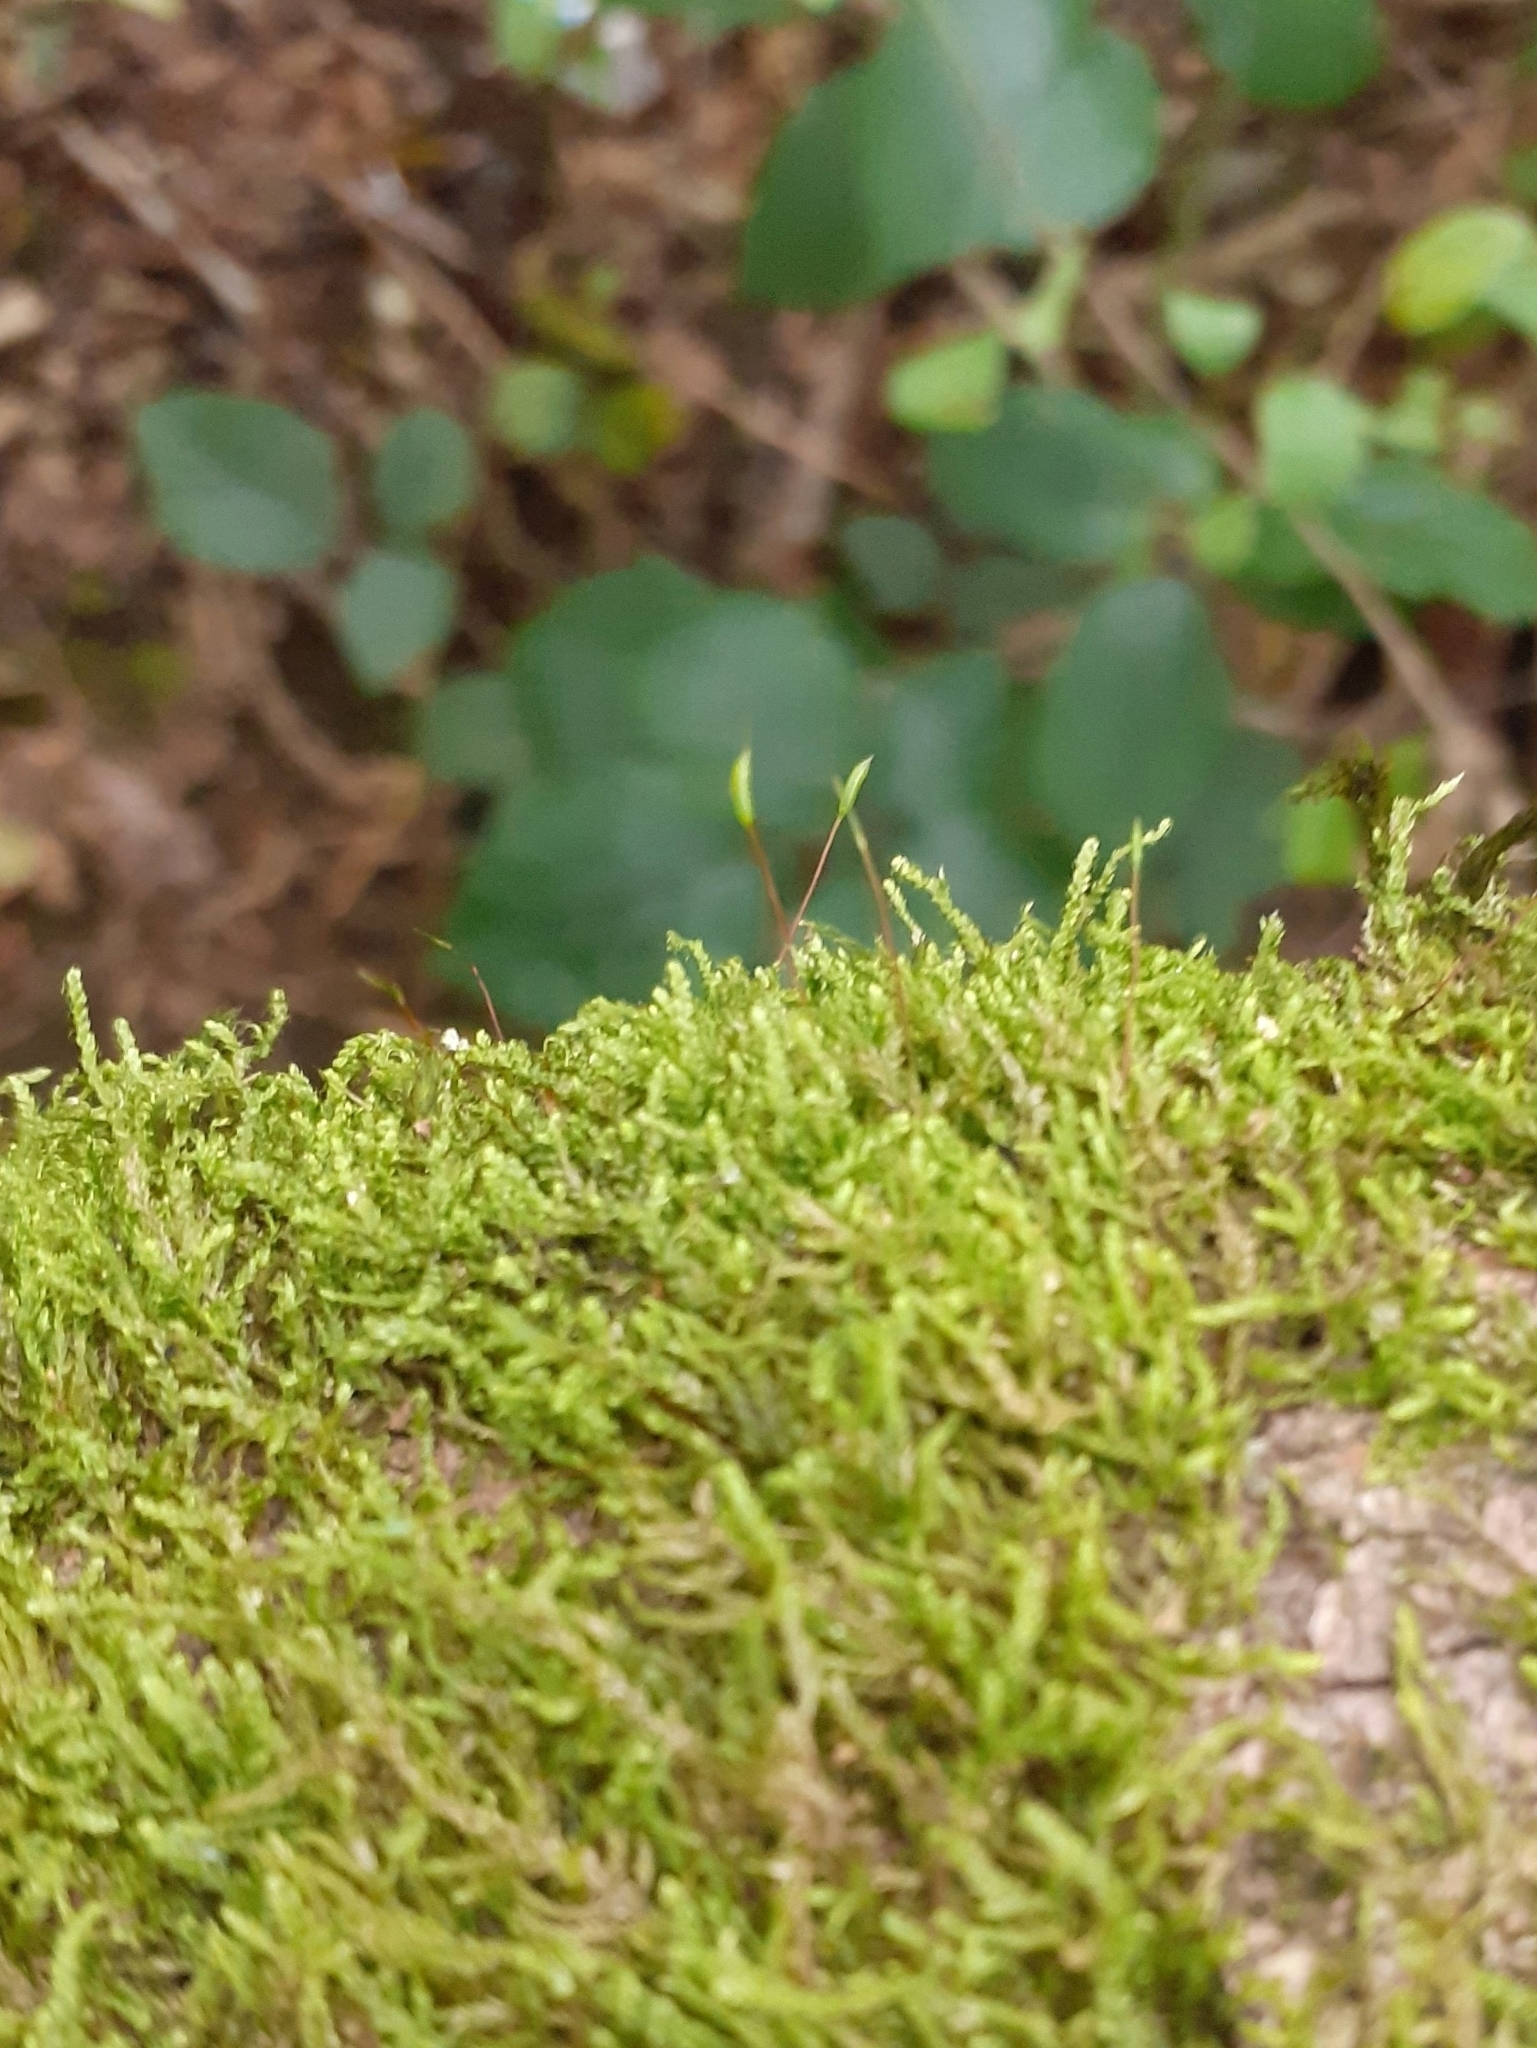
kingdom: Plantae
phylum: Bryophyta
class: Bryopsida
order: Hypnales
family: Hypnaceae
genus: Hypnum
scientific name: Hypnum cupressiforme
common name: Cypress-leaved plait-moss
